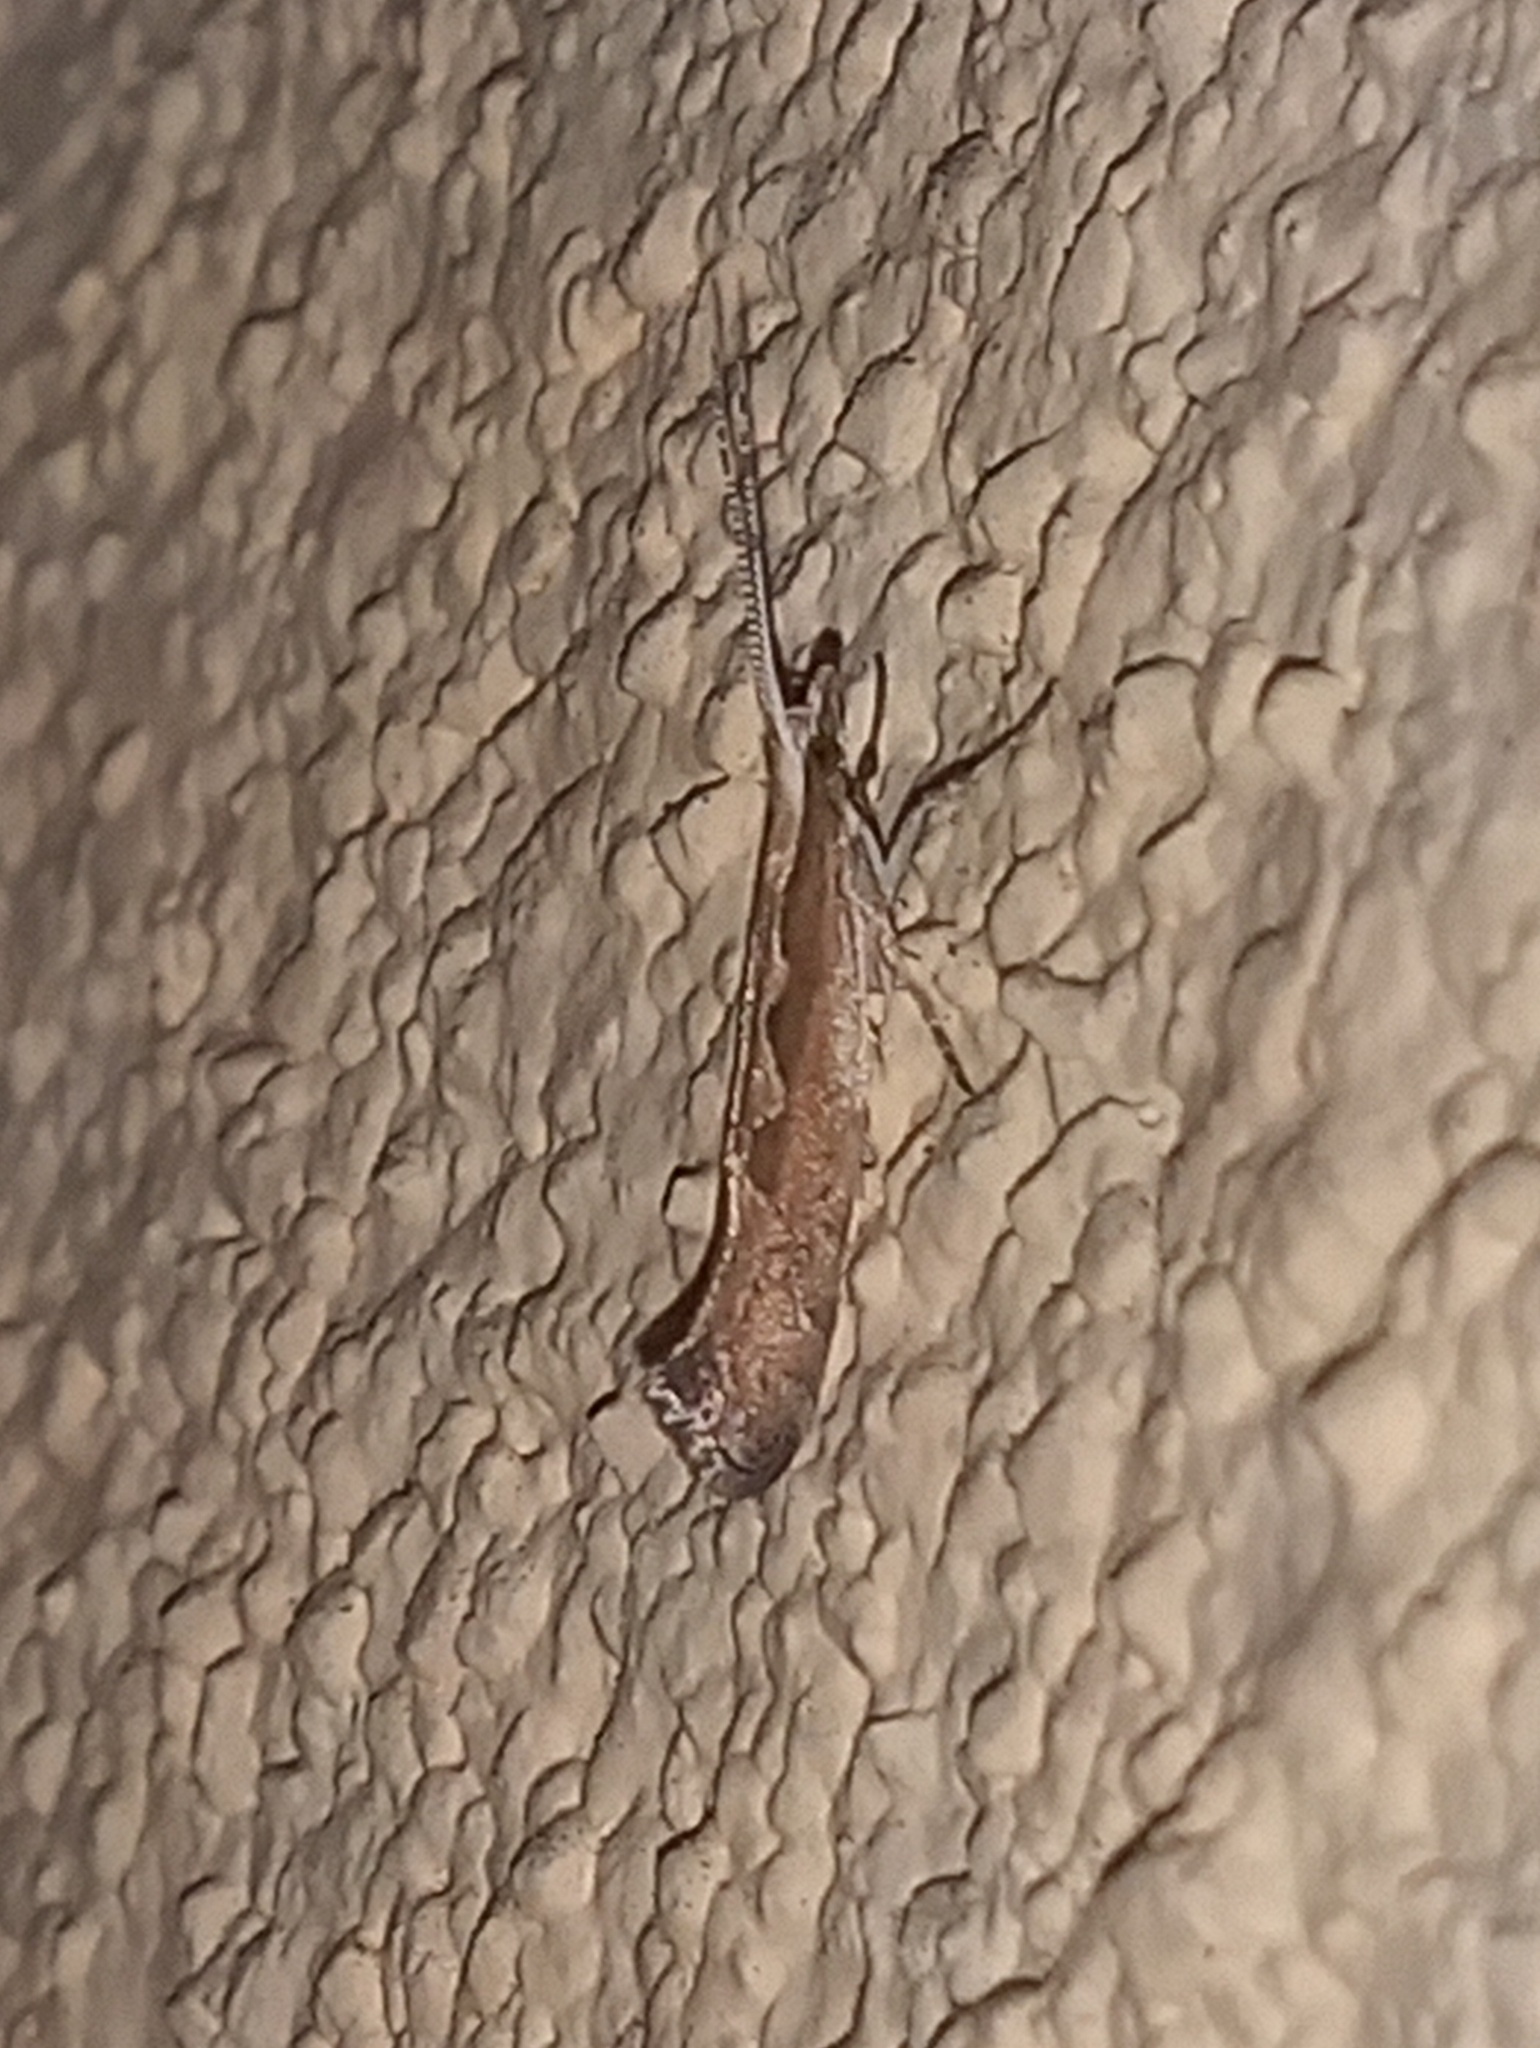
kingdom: Animalia
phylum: Arthropoda
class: Insecta
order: Lepidoptera
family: Plutellidae
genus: Plutella
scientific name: Plutella xylostella
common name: Diamond-back moth
